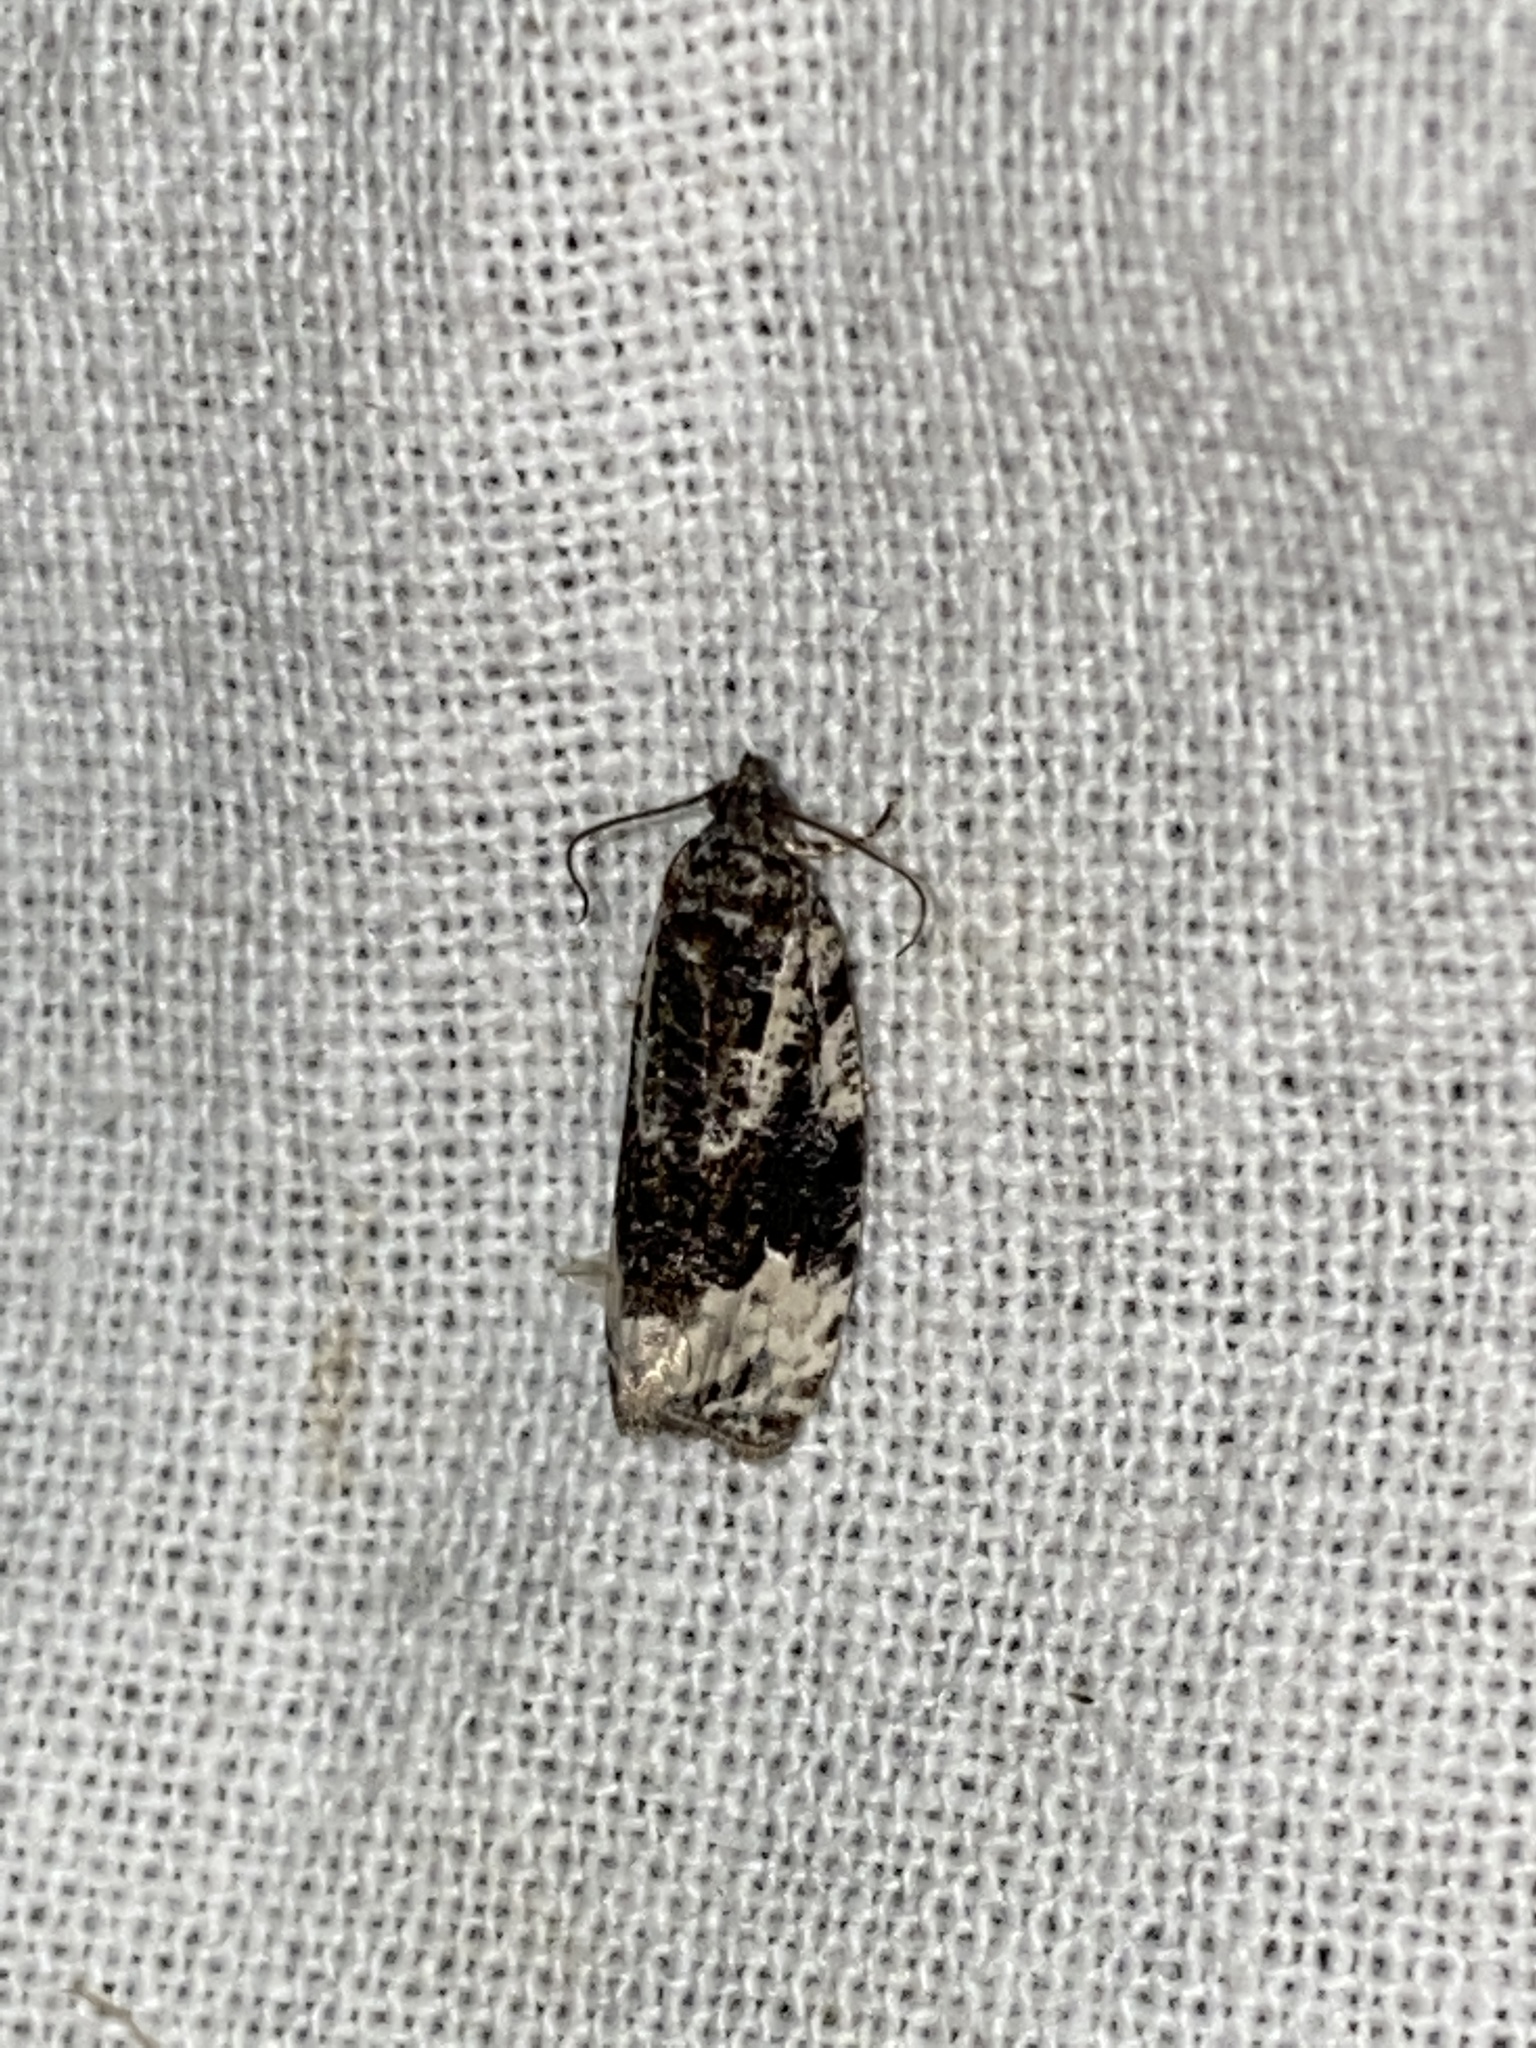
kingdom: Animalia
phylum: Arthropoda
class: Insecta
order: Lepidoptera
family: Tortricidae
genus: Apotomis
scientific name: Apotomis turbidana
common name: White-shouldered marble
